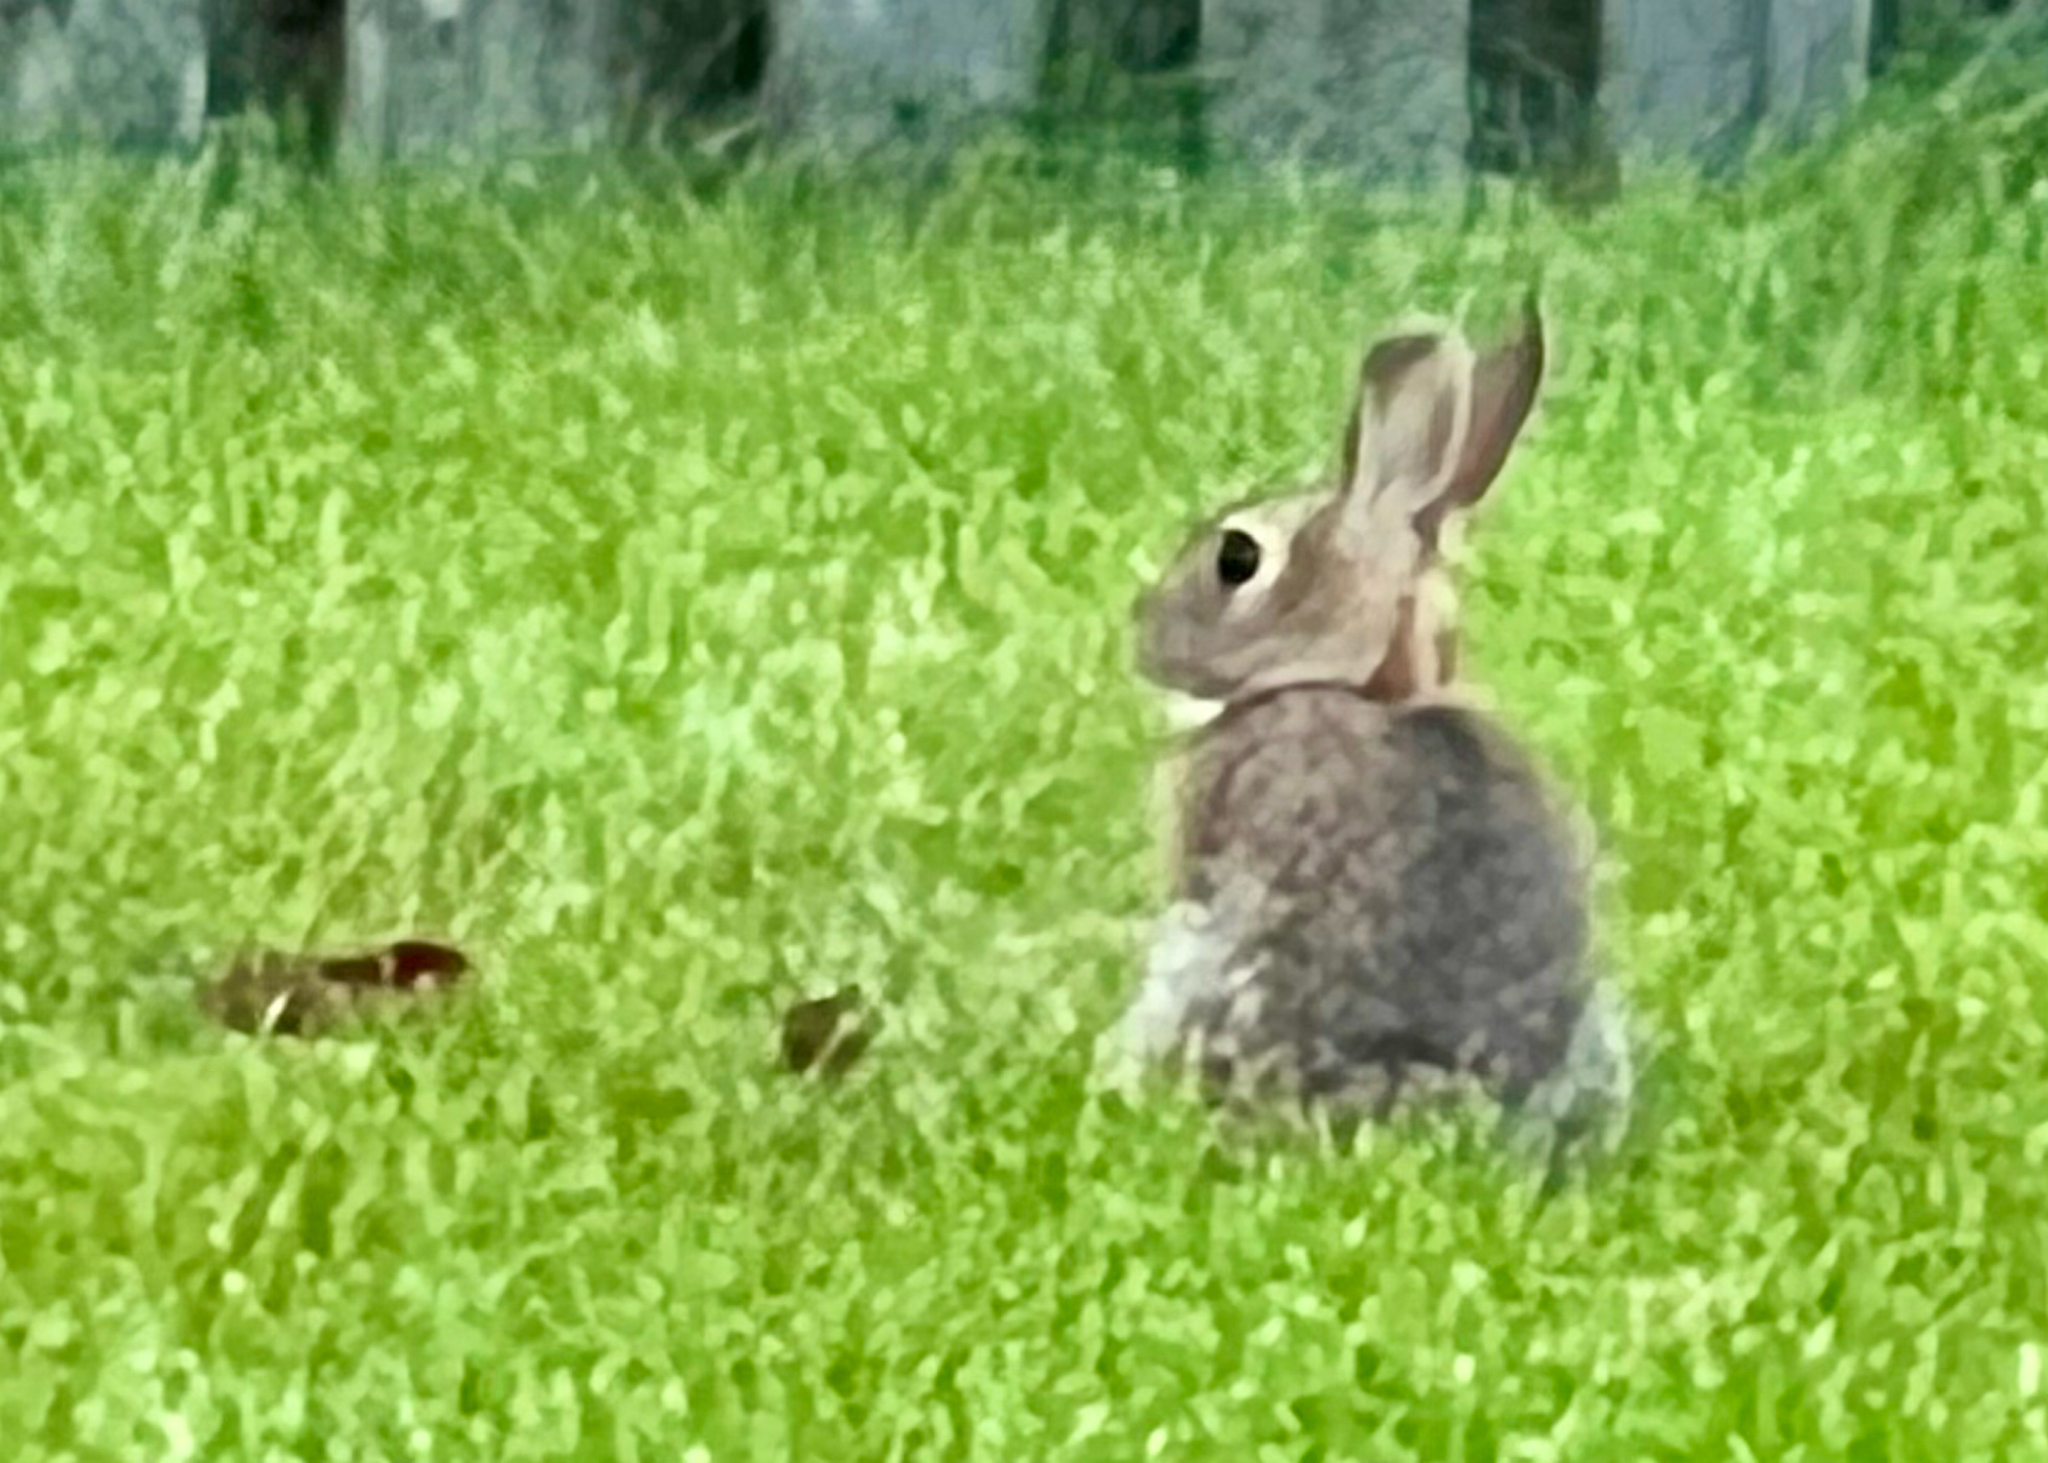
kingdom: Animalia
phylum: Chordata
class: Mammalia
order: Lagomorpha
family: Leporidae
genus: Sylvilagus
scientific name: Sylvilagus floridanus
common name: Eastern cottontail
